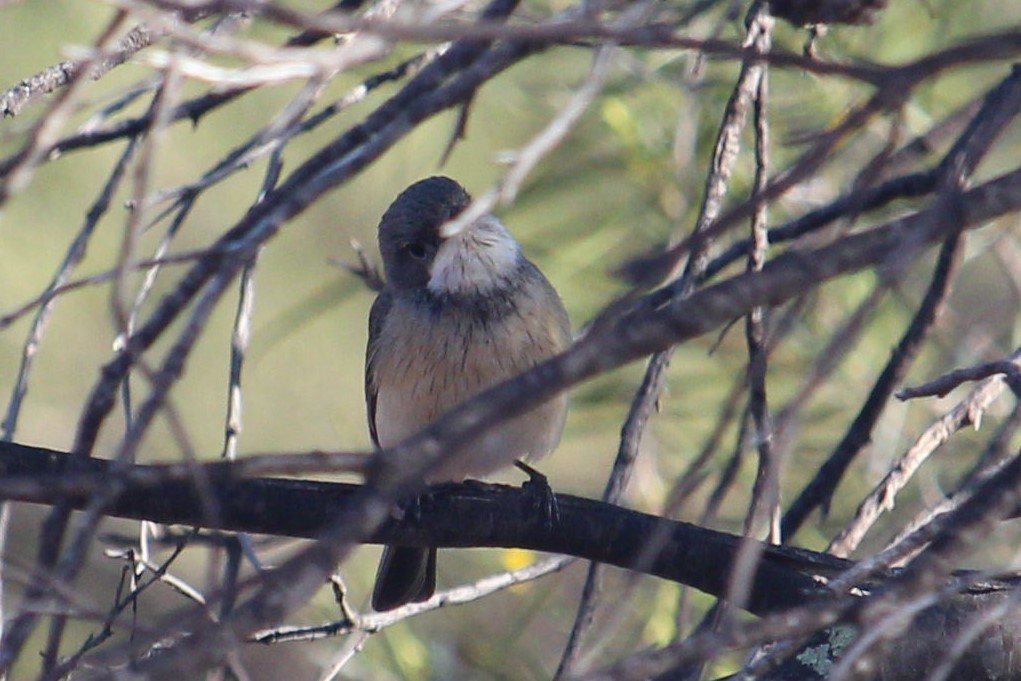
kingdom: Animalia
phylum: Chordata
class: Aves
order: Passeriformes
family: Pachycephalidae
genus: Pachycephala
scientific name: Pachycephala rufiventris
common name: Rufous whistler
